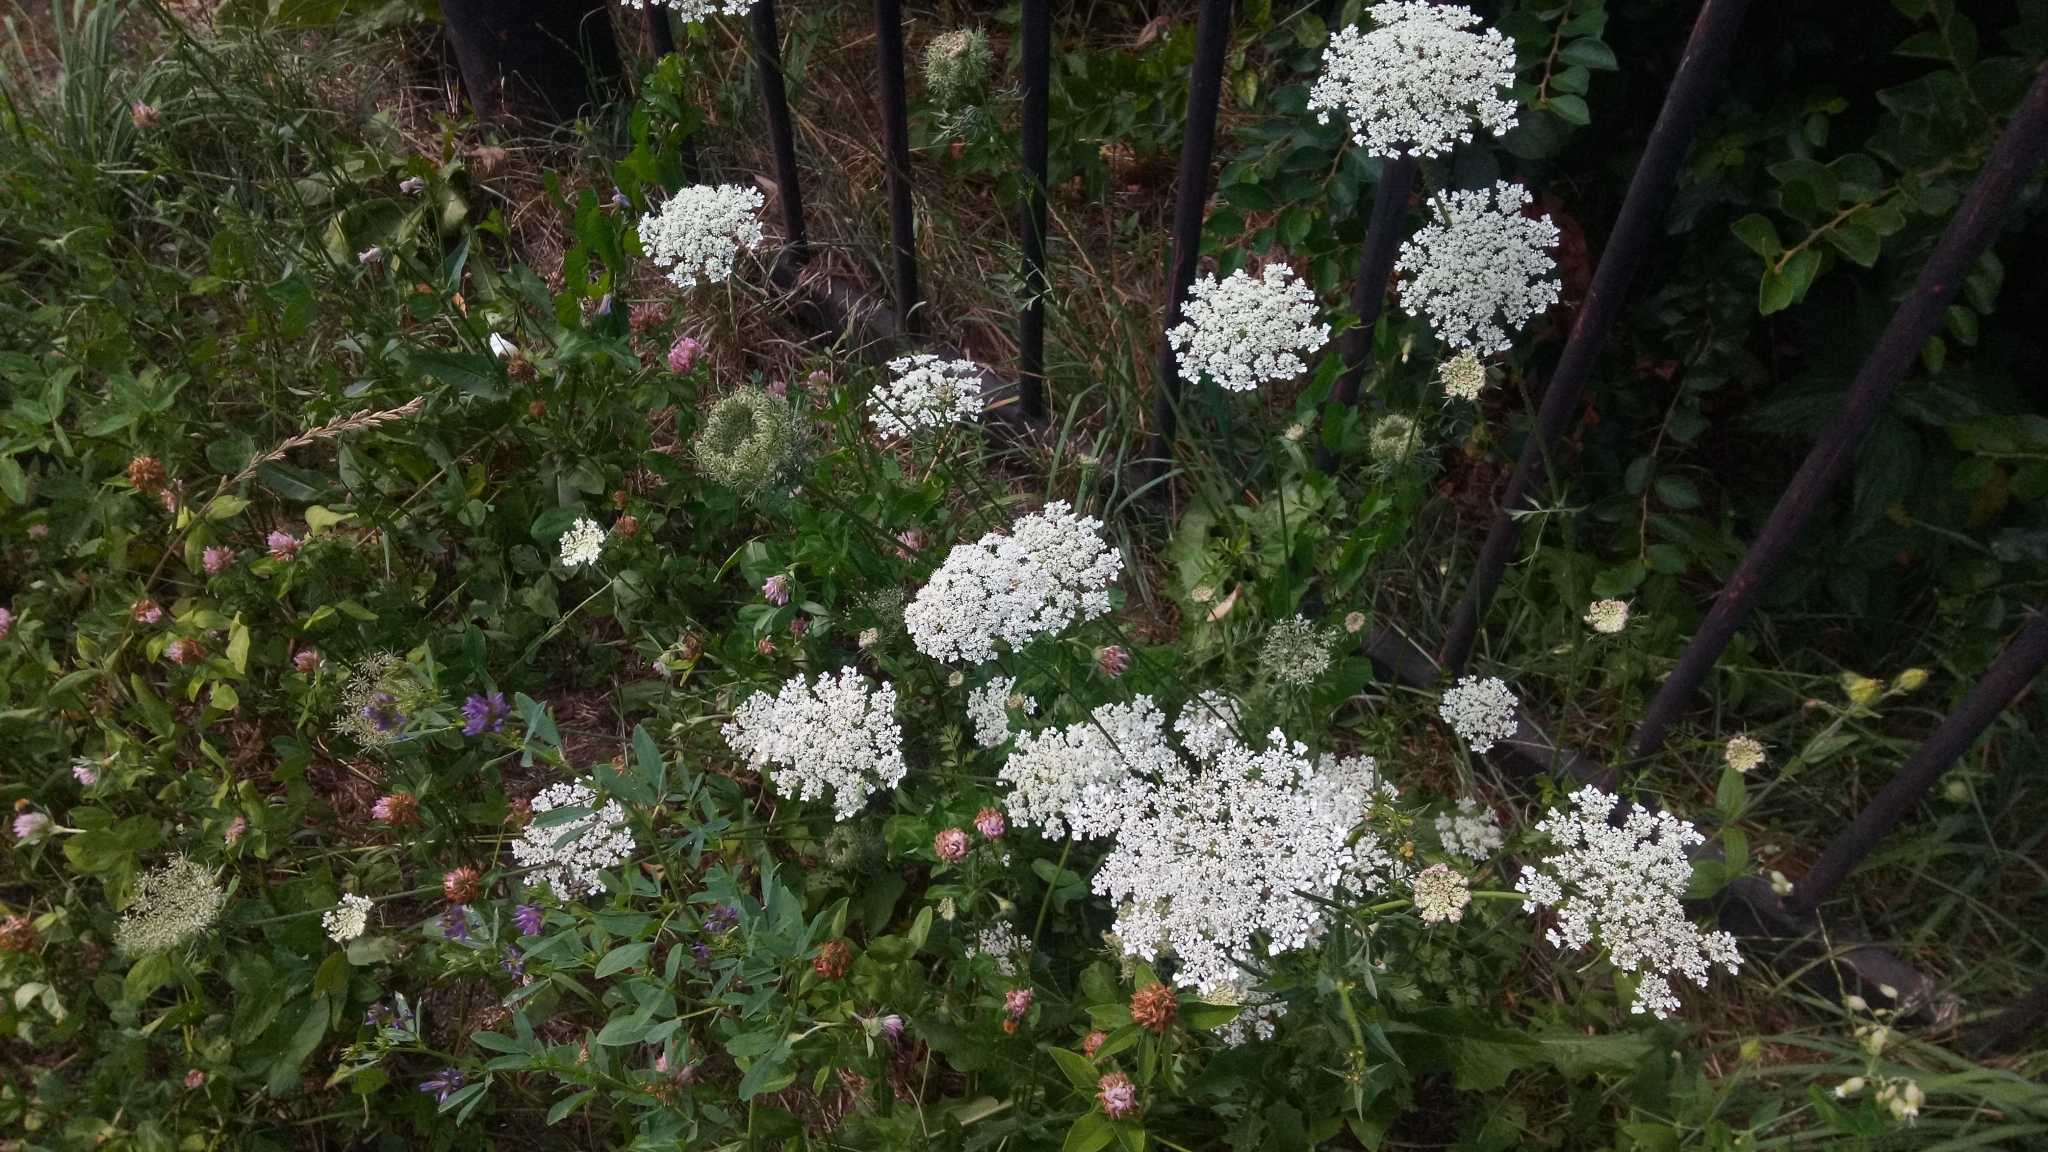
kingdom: Plantae
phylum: Tracheophyta
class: Magnoliopsida
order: Apiales
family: Apiaceae
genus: Daucus
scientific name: Daucus carota
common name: Wild carrot
